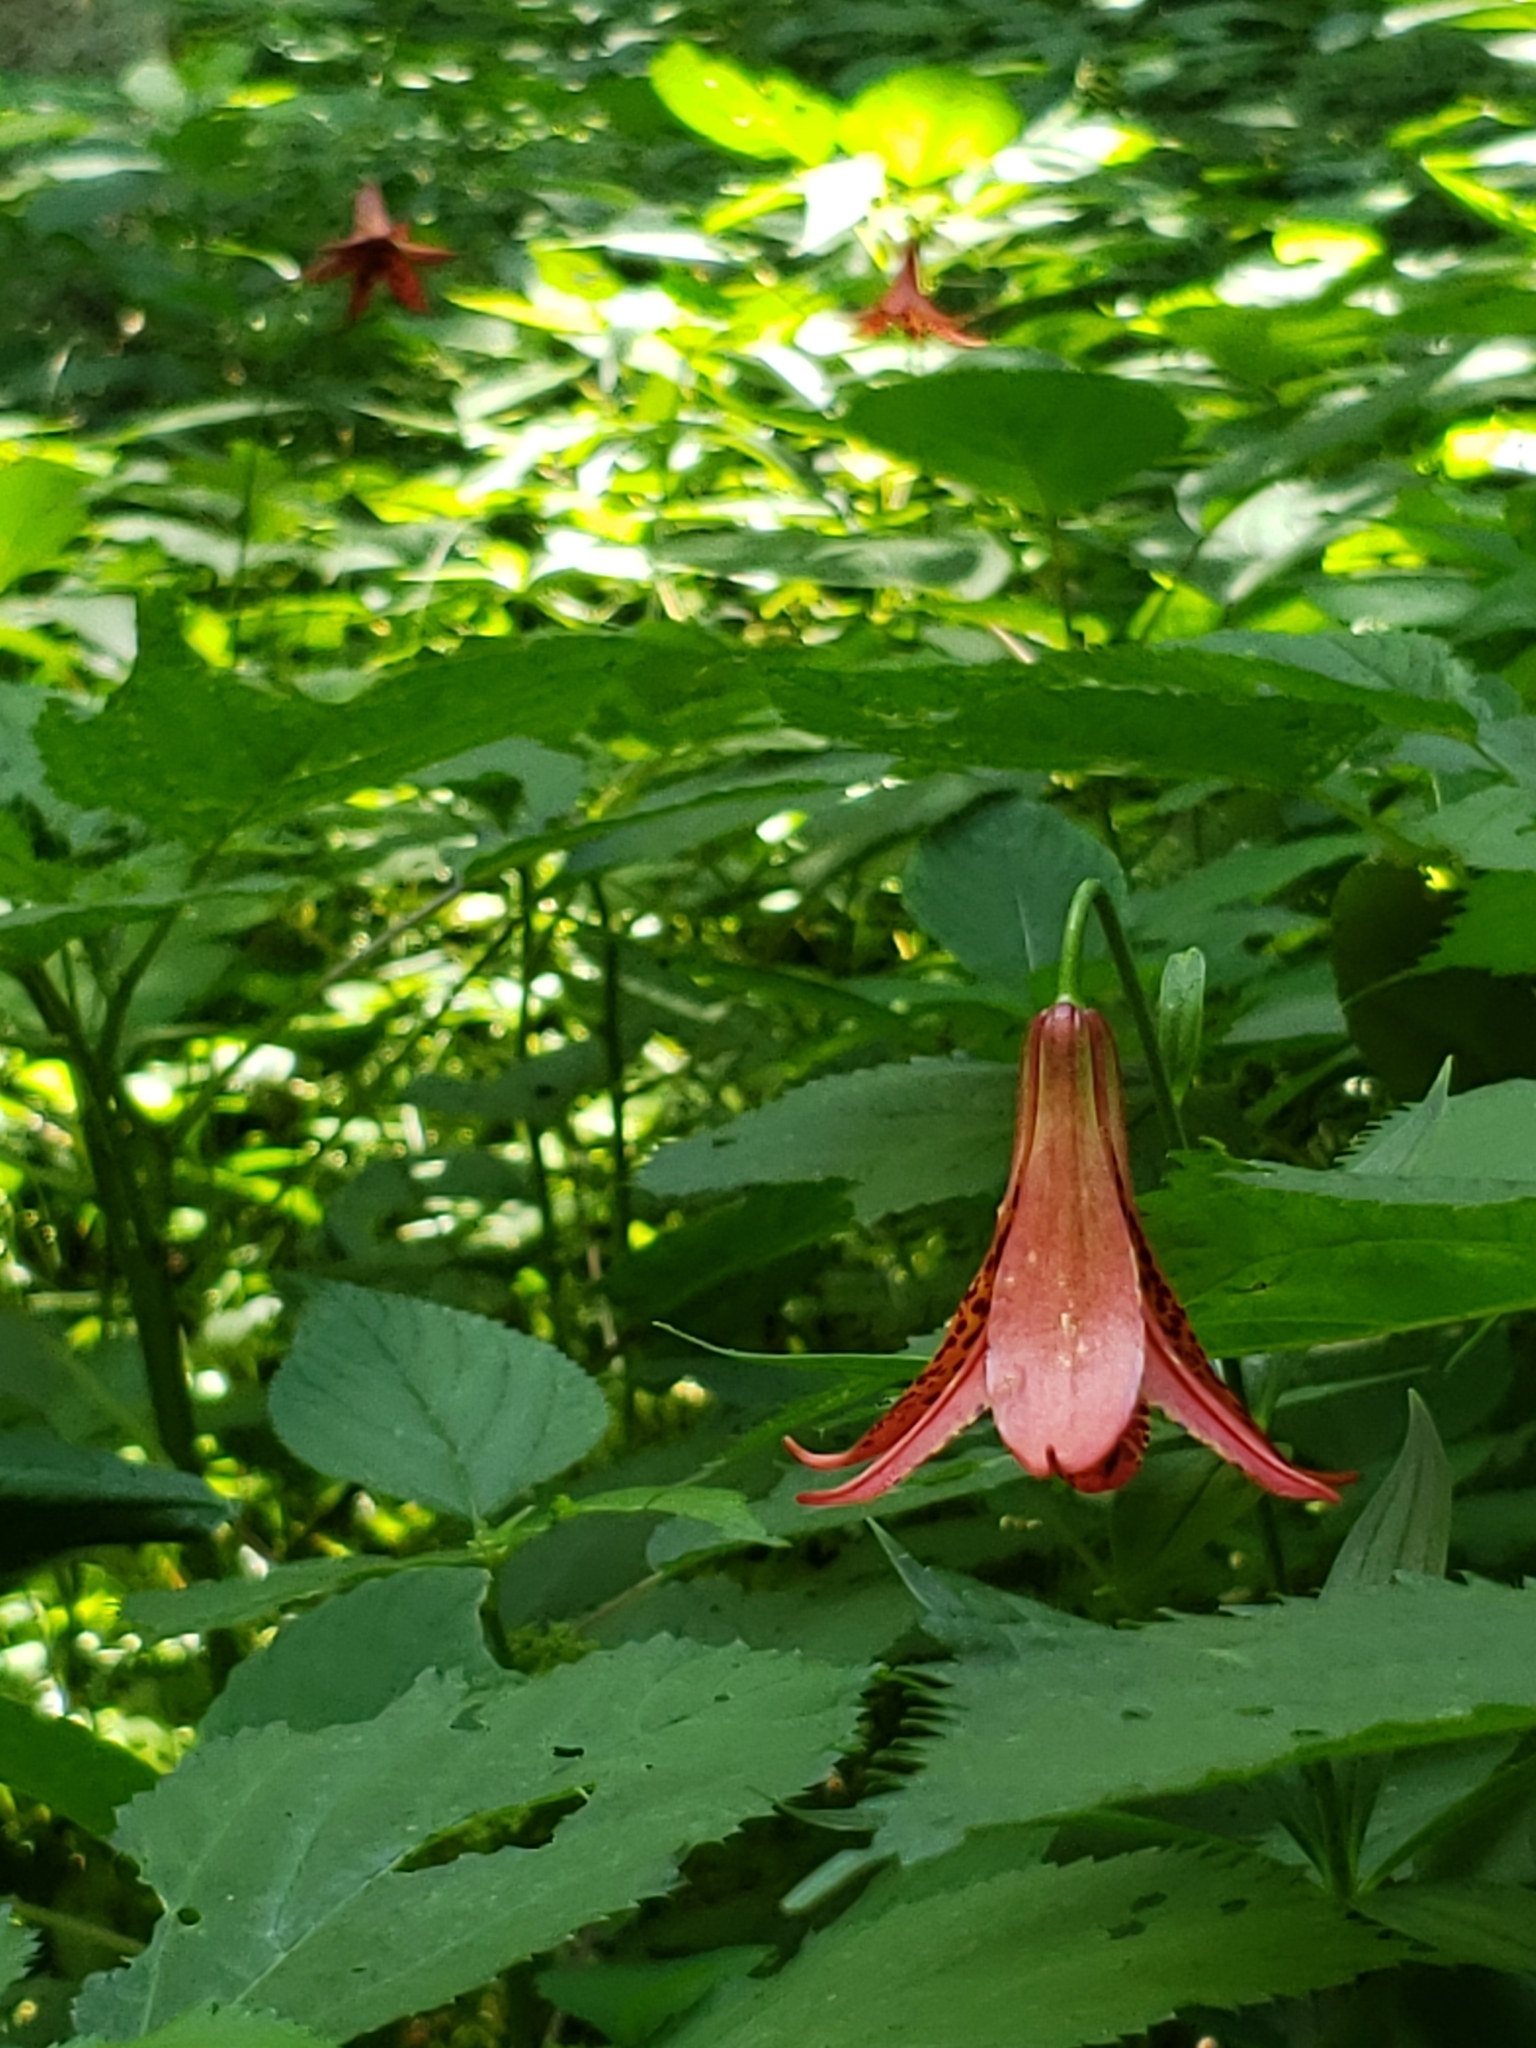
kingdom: Plantae
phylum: Tracheophyta
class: Liliopsida
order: Liliales
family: Liliaceae
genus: Lilium
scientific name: Lilium canadense
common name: Canada lily
